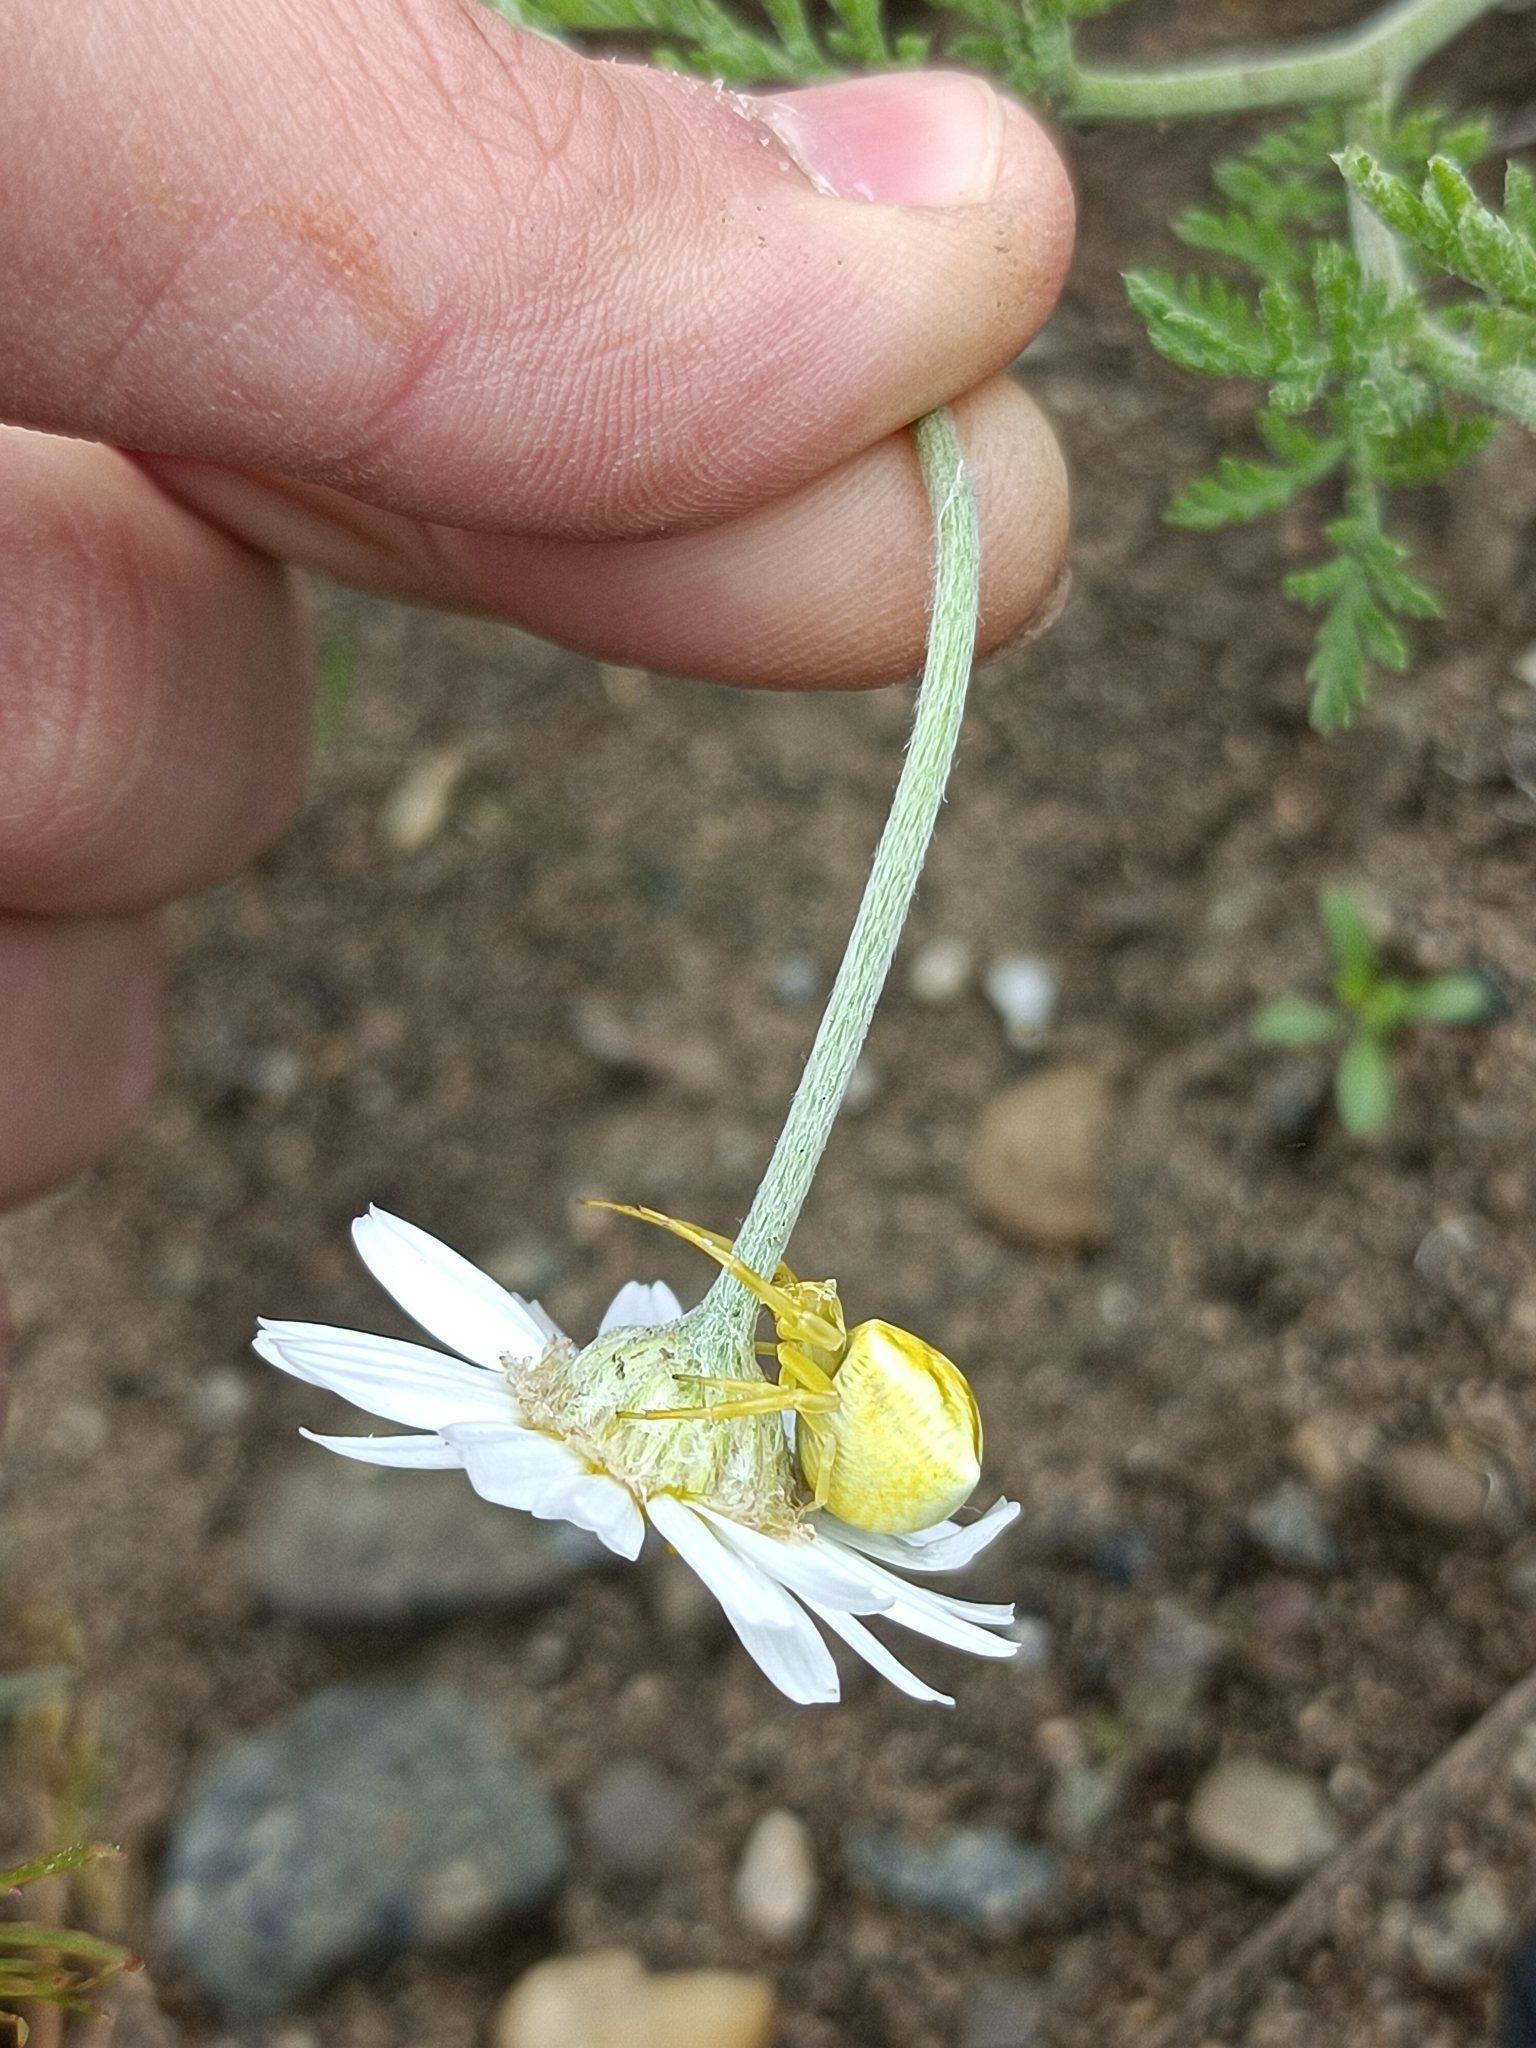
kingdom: Animalia
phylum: Arthropoda
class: Arachnida
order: Araneae
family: Thomisidae
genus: Thomisus
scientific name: Thomisus onustus
